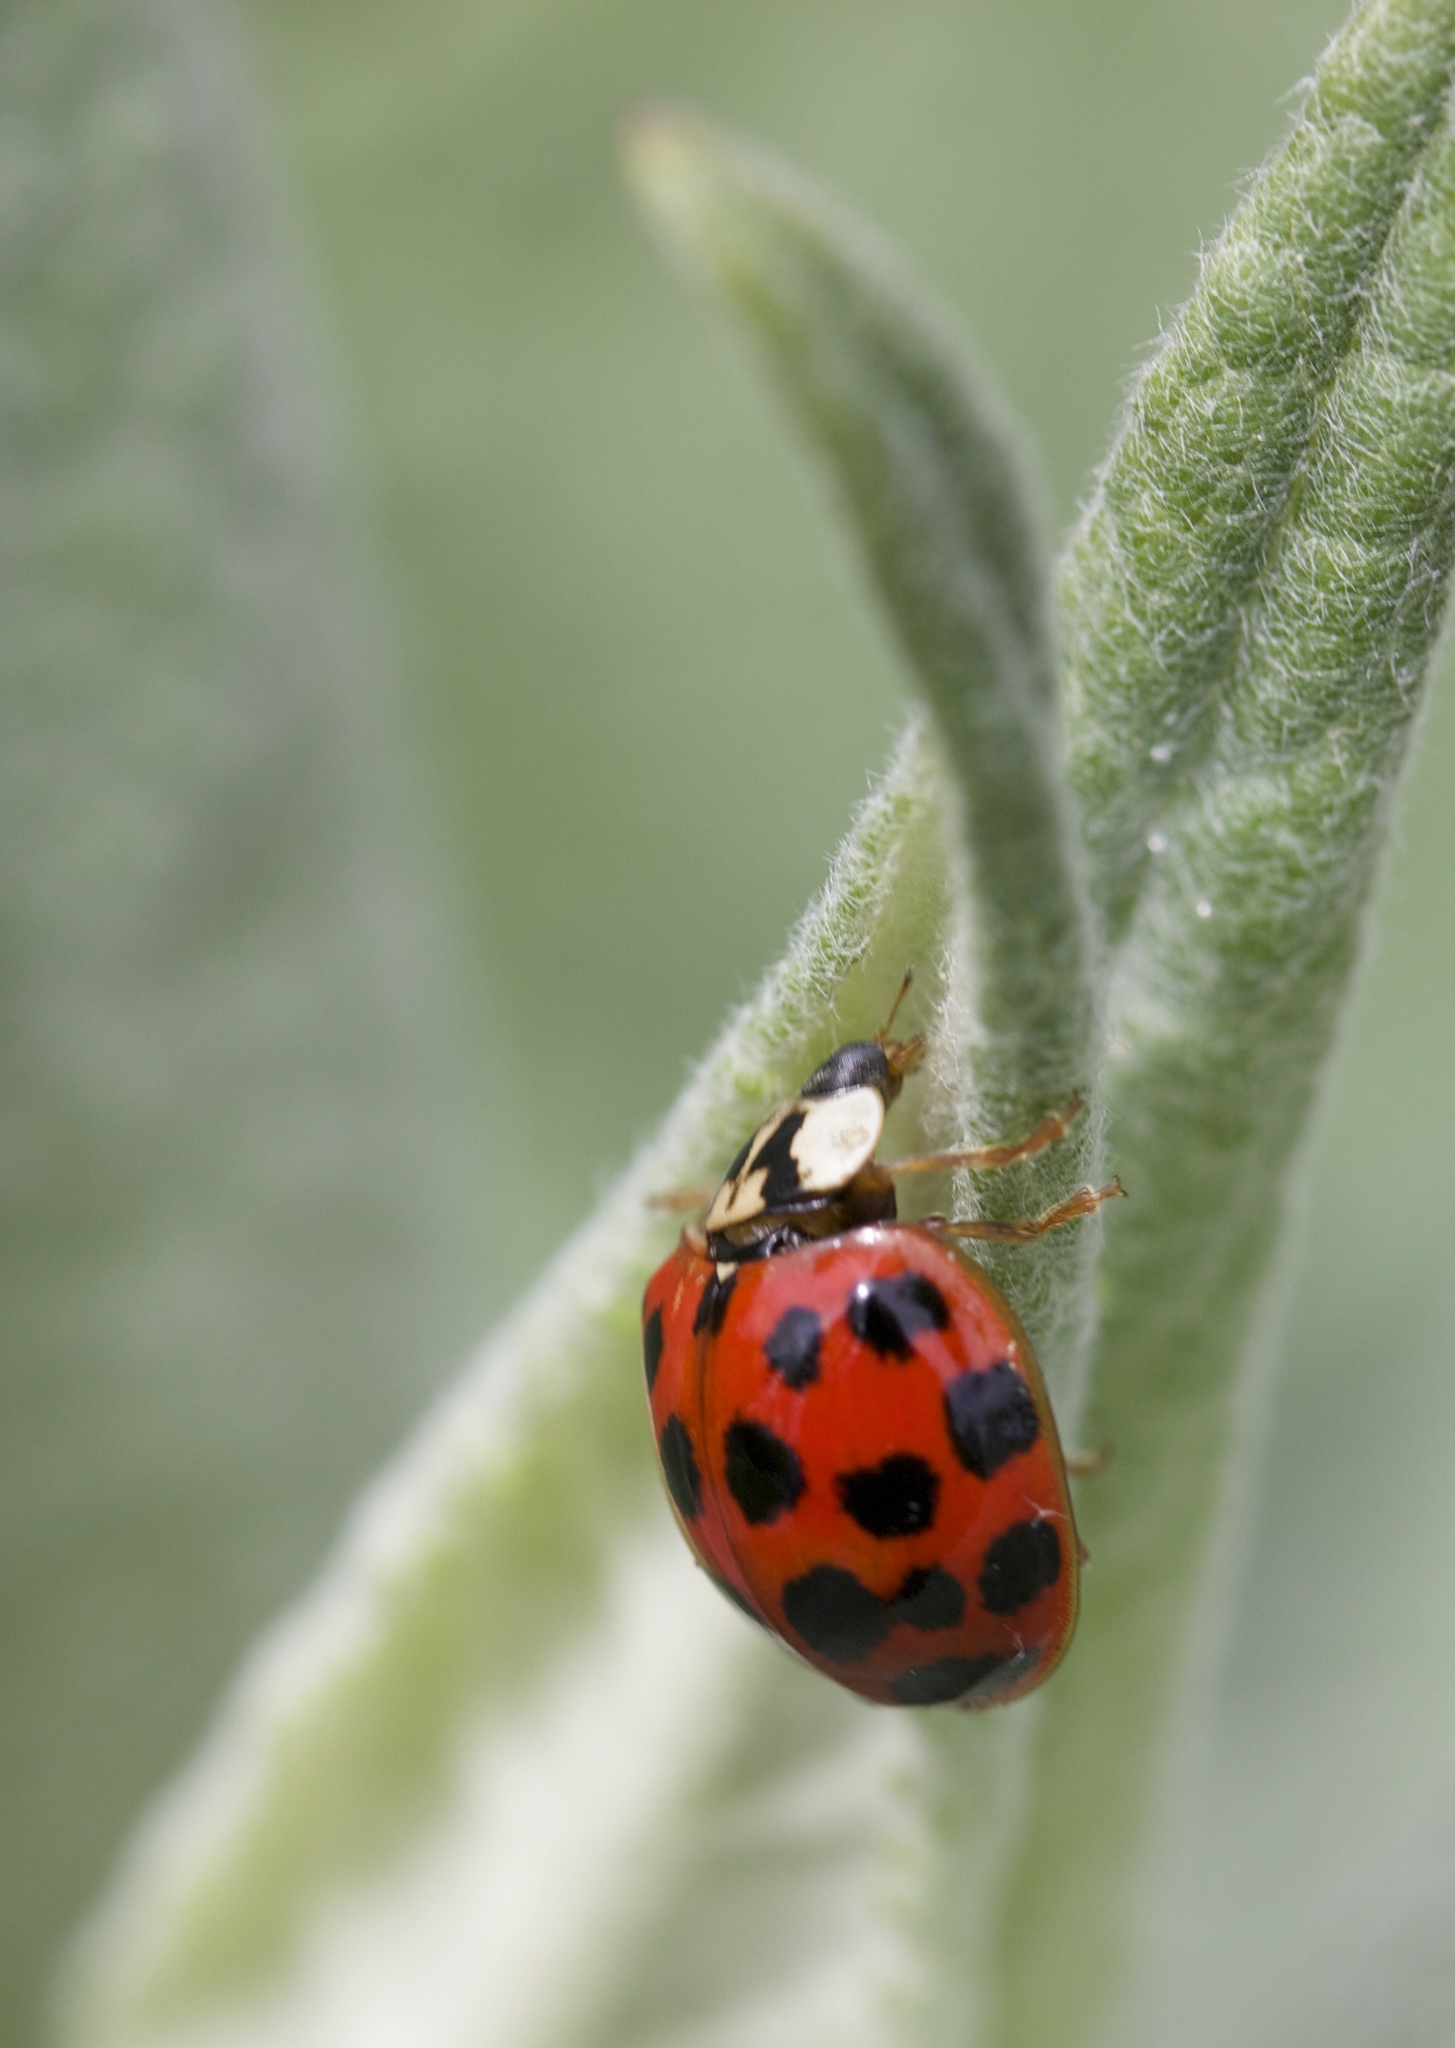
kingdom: Animalia
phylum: Arthropoda
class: Insecta
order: Coleoptera
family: Coccinellidae
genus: Harmonia
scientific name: Harmonia axyridis
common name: Harlequin ladybird
